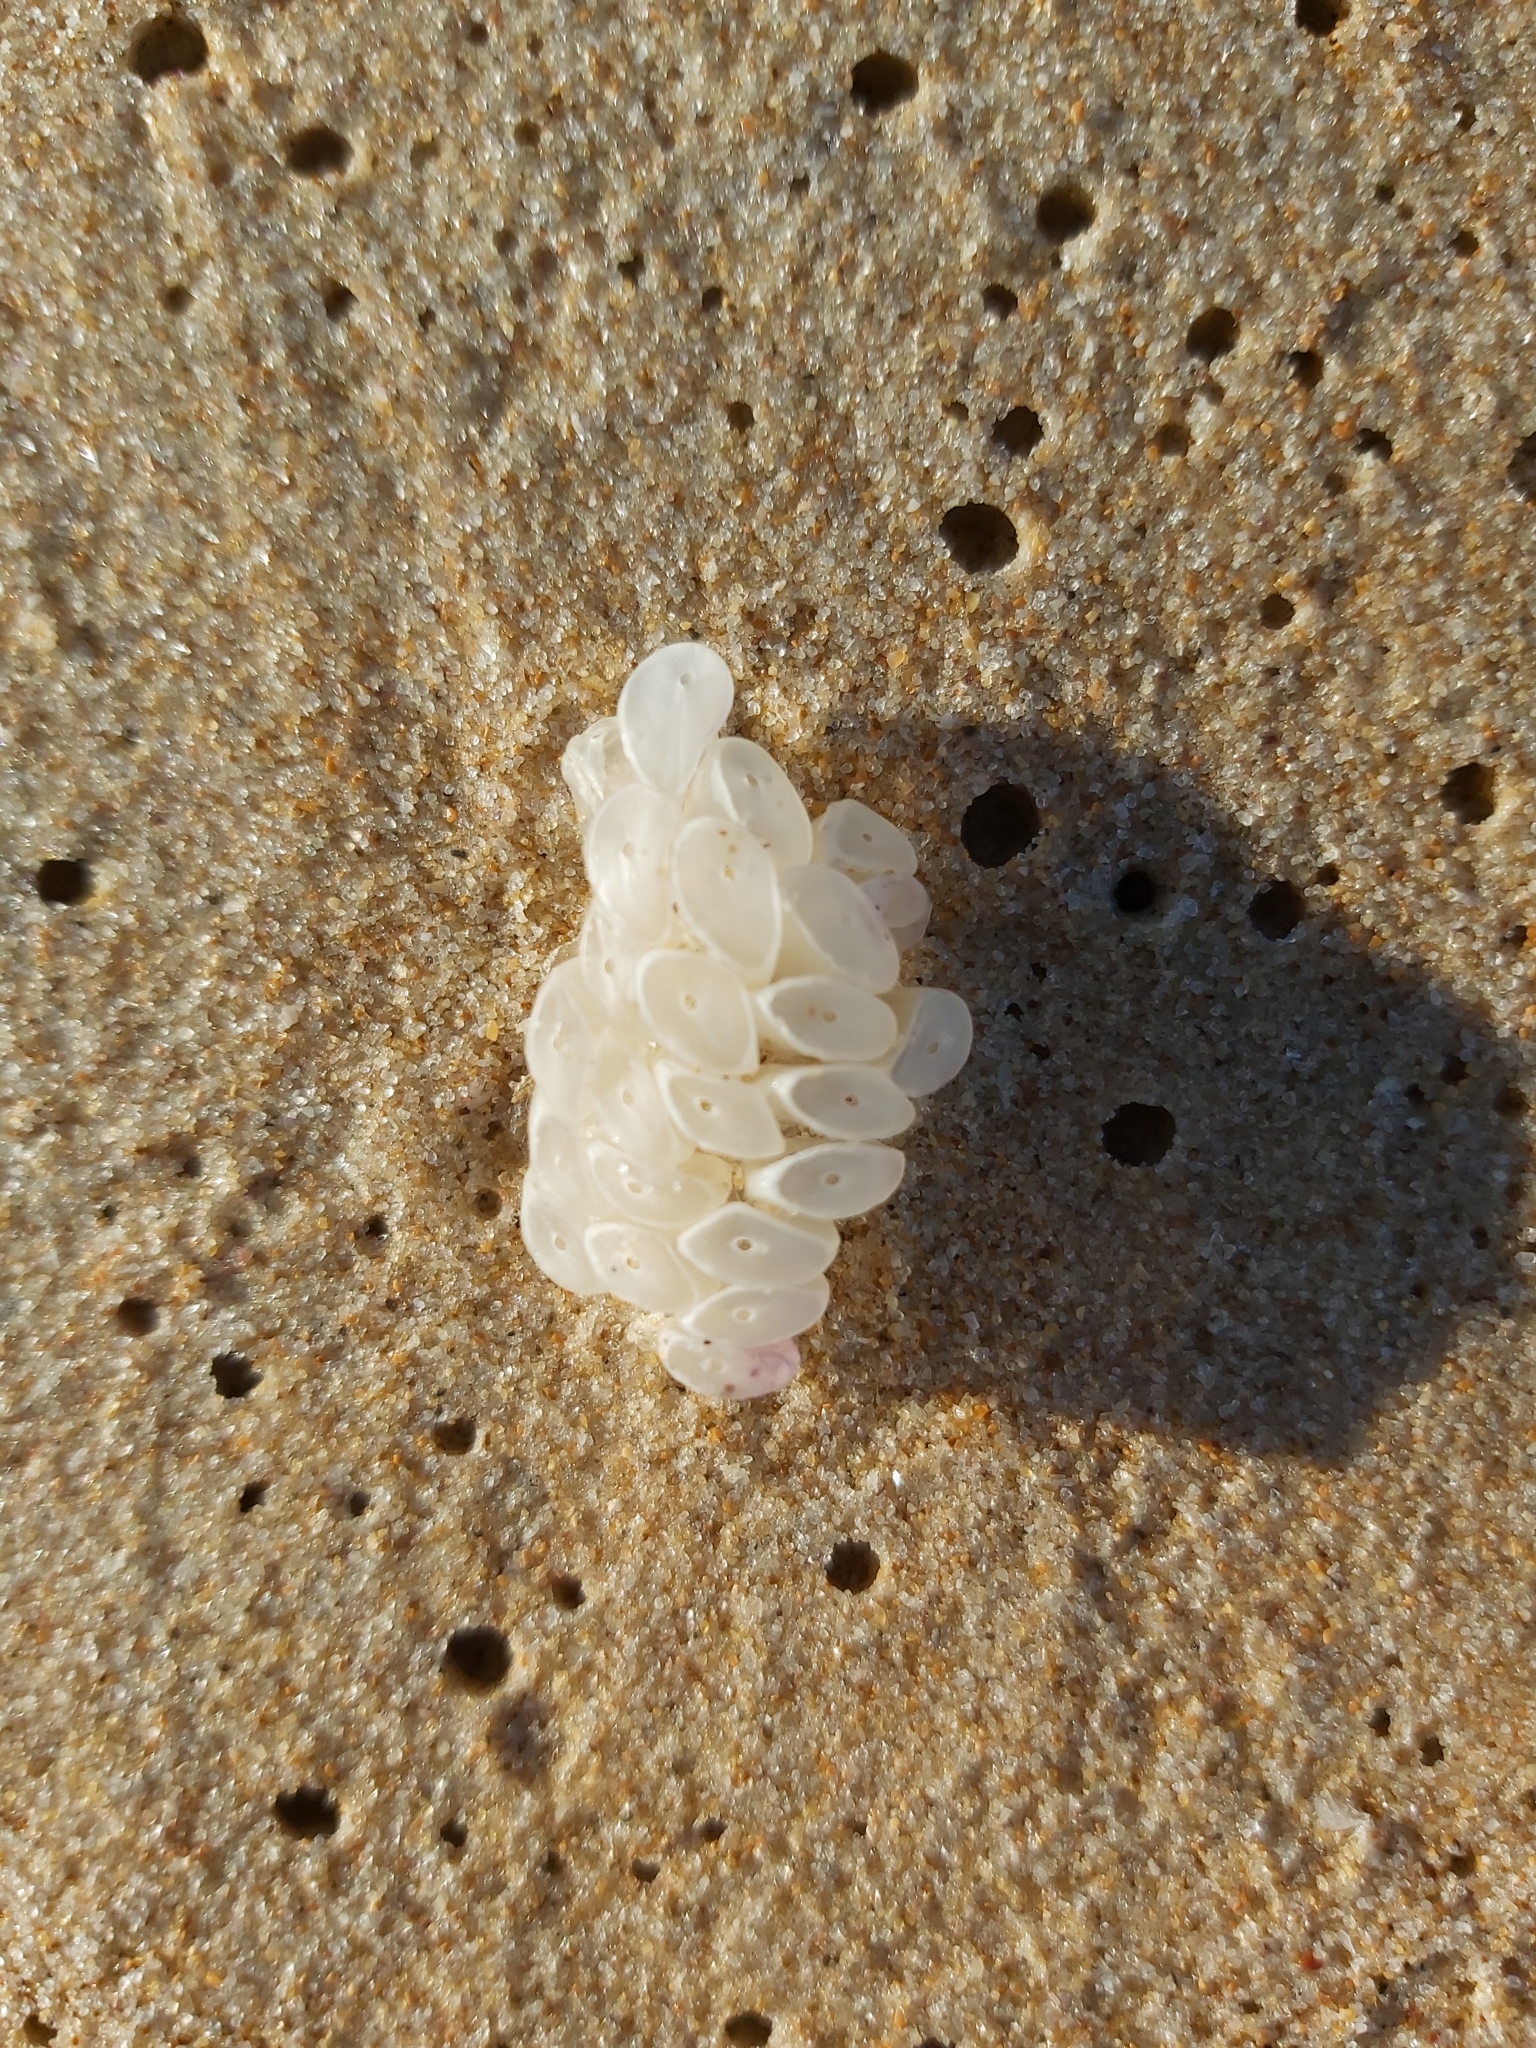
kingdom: Animalia
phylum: Mollusca
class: Gastropoda
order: Neogastropoda
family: Muricidae
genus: Dicathais
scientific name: Dicathais orbita
